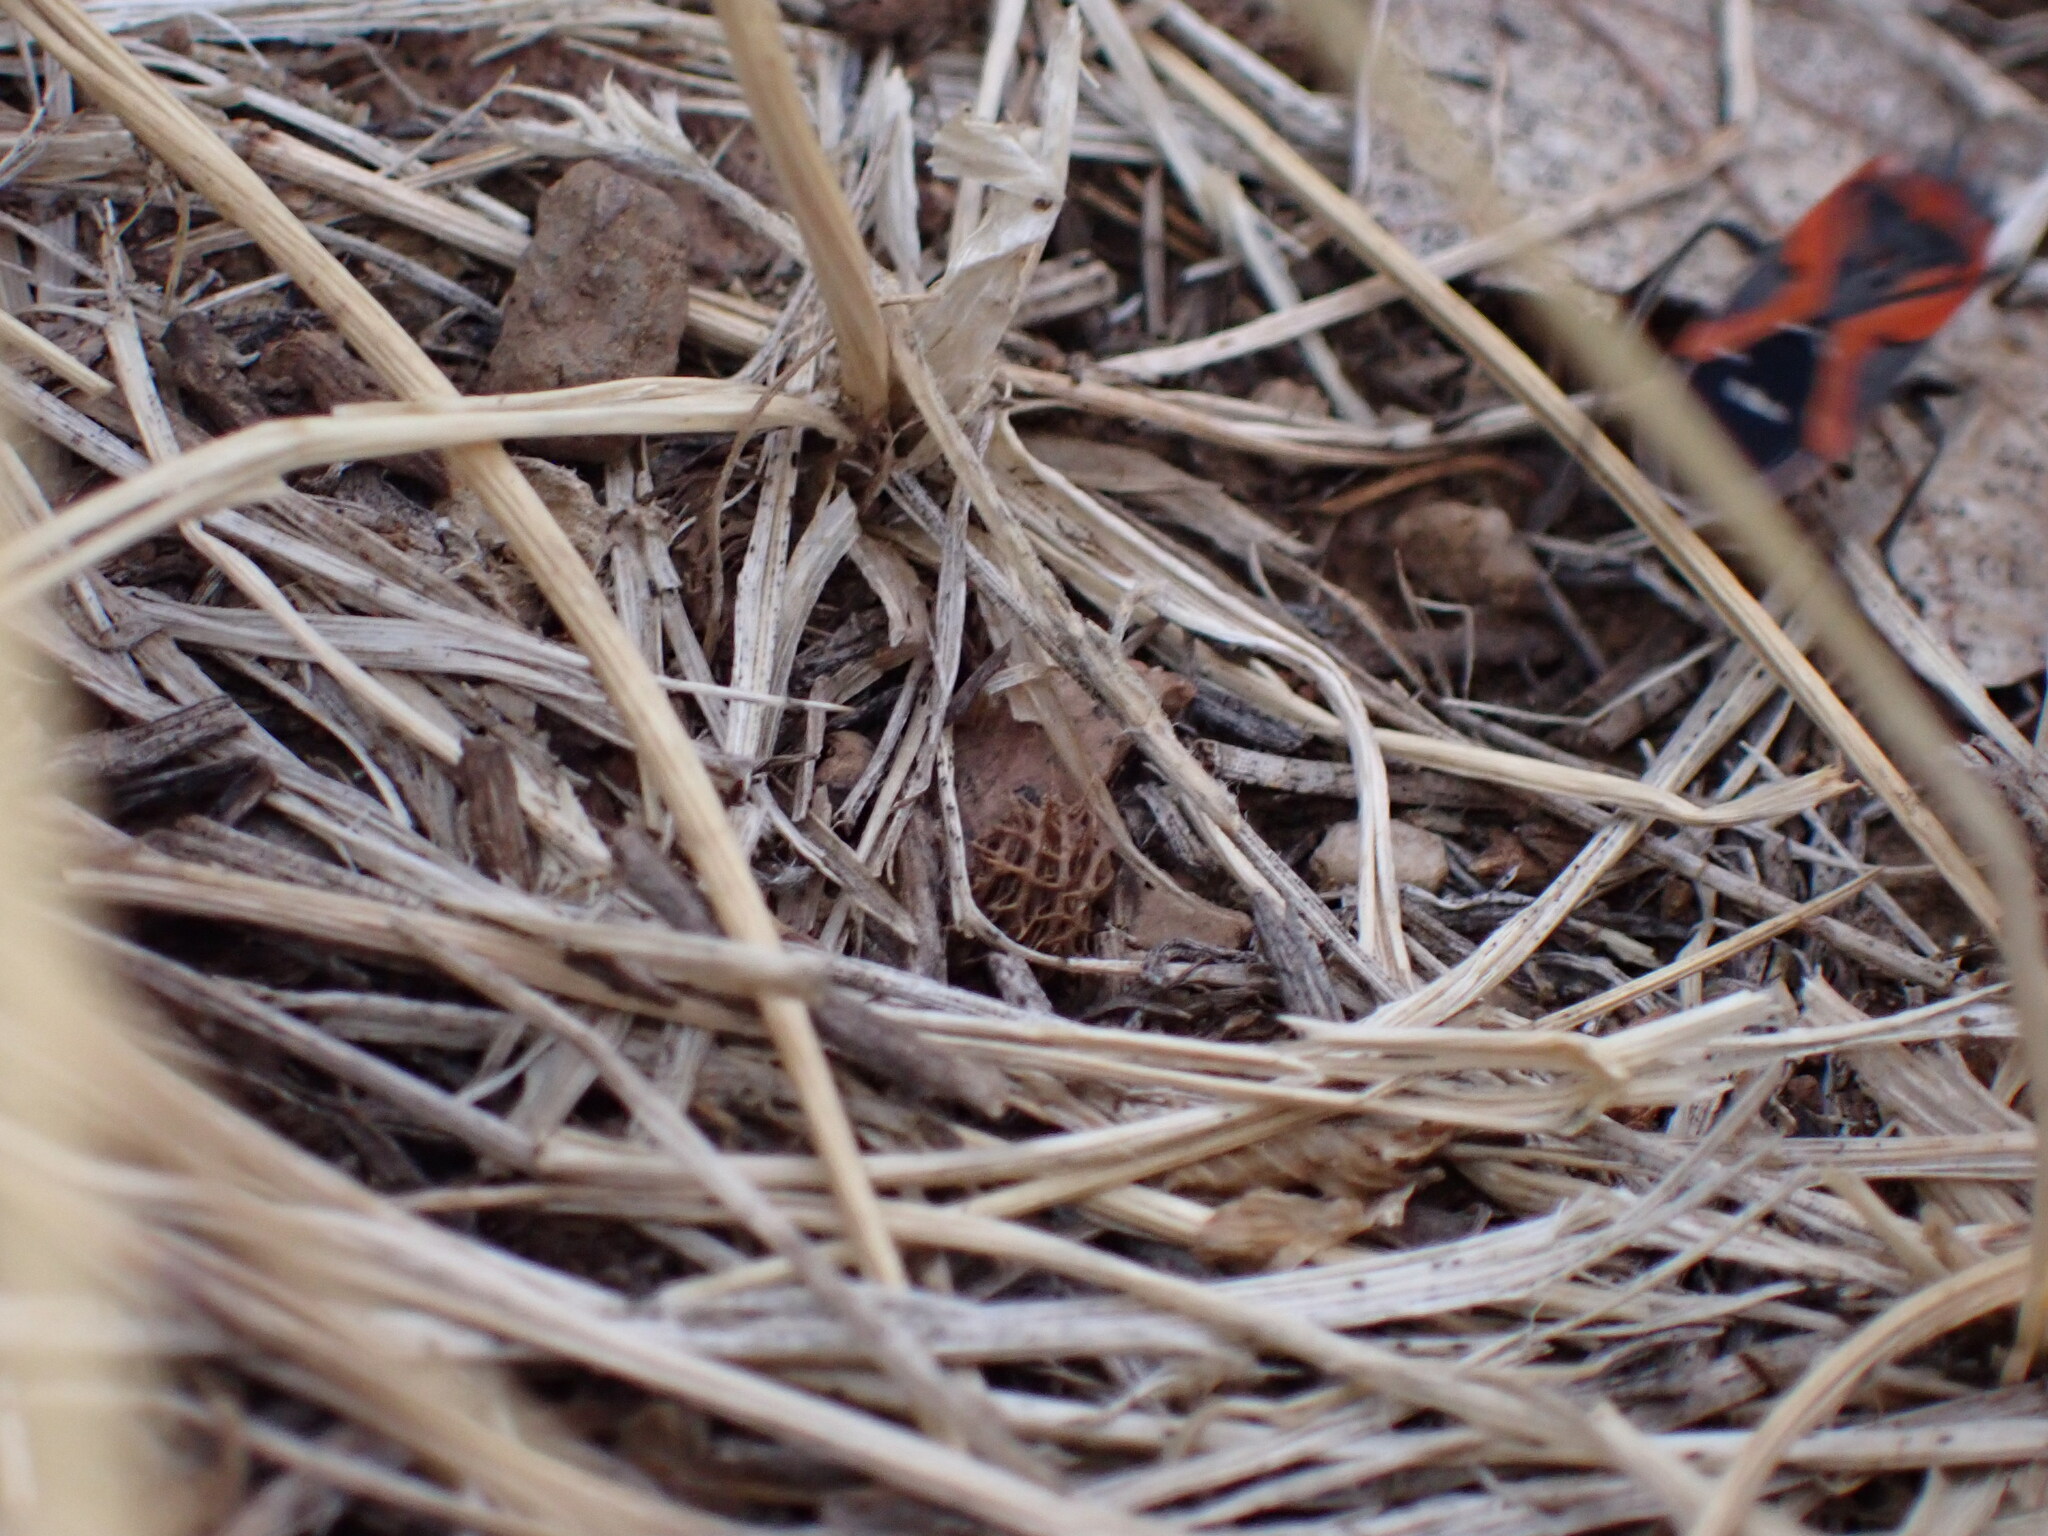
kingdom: Animalia
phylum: Arthropoda
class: Insecta
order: Hemiptera
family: Lygaeidae
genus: Lygaeus
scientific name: Lygaeus reclivatus
